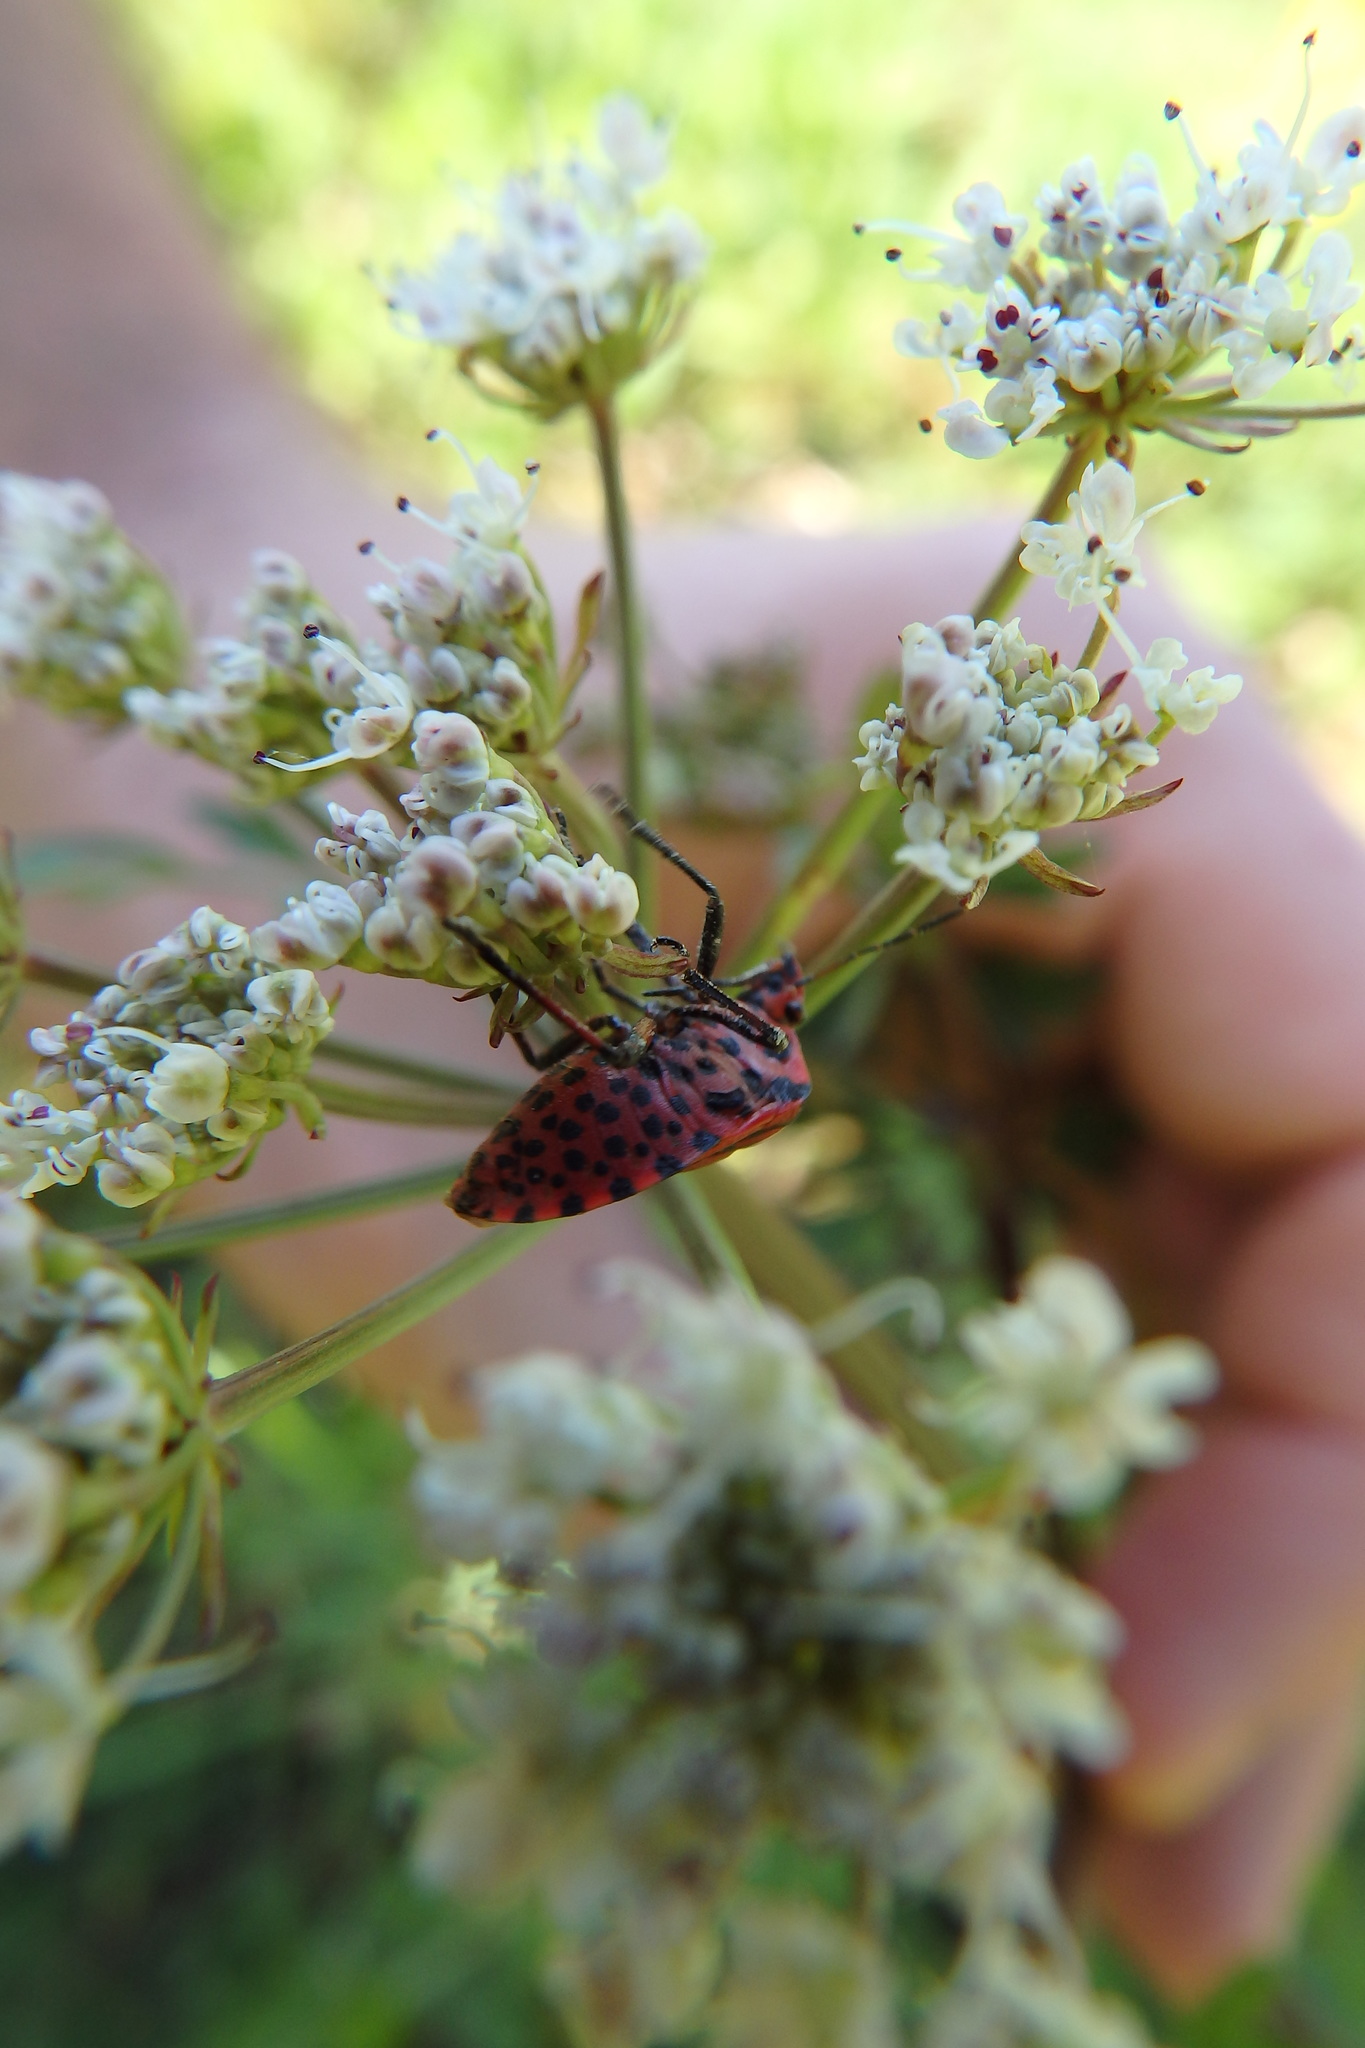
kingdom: Animalia
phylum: Arthropoda
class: Insecta
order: Hemiptera
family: Pentatomidae
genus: Graphosoma
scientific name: Graphosoma italicum
